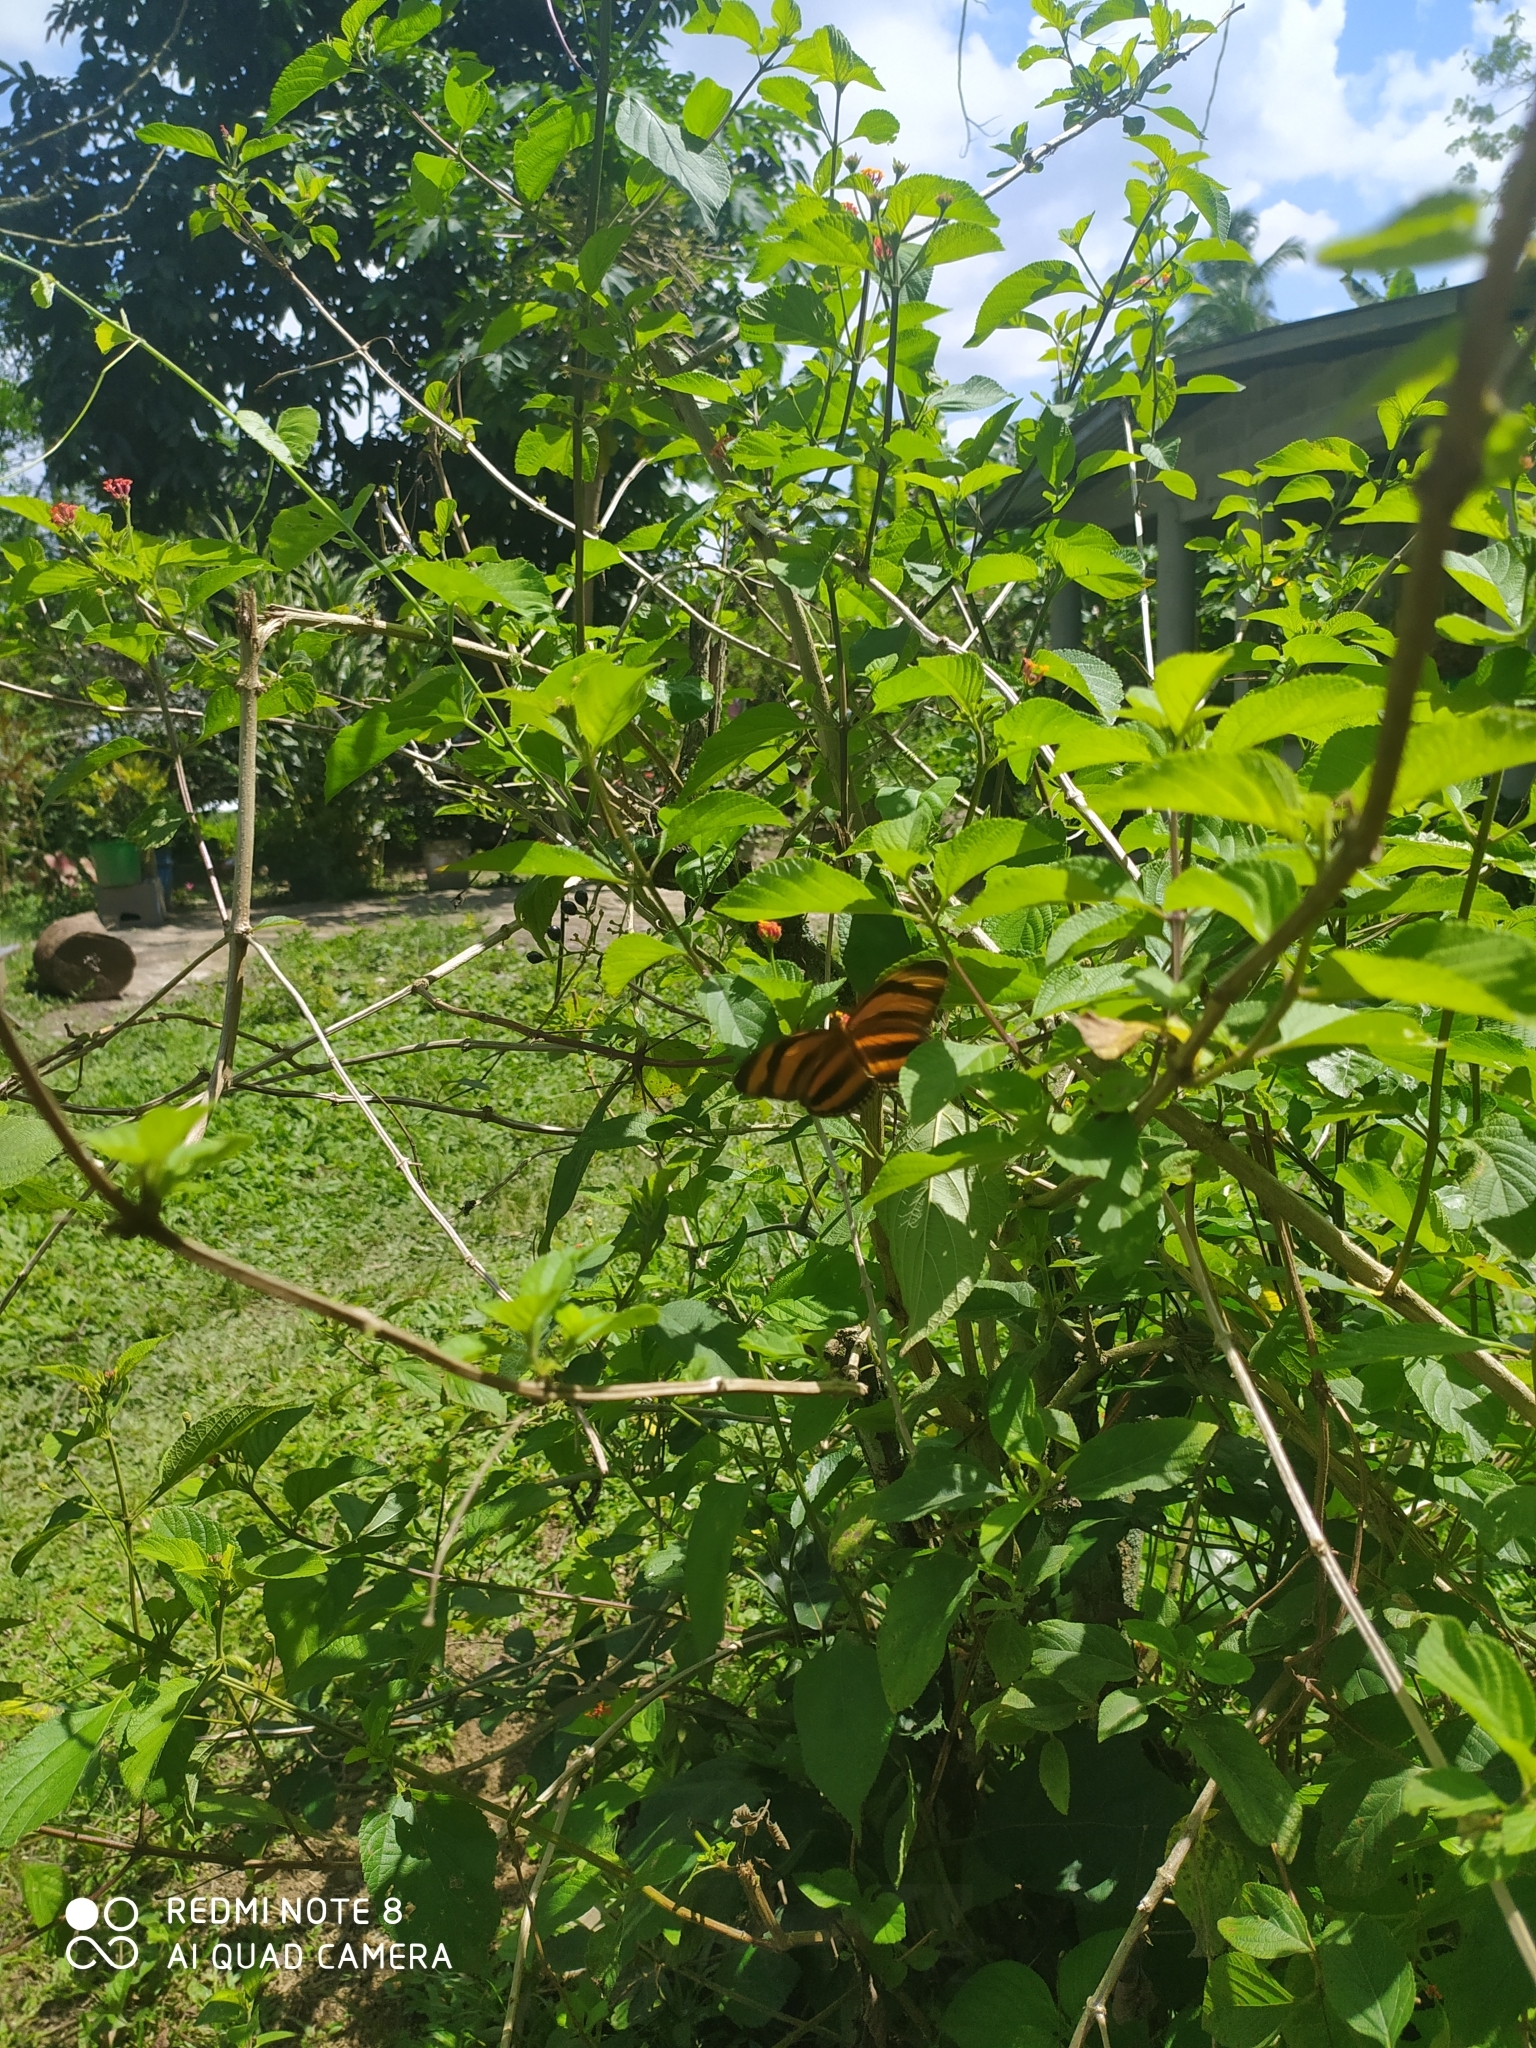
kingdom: Animalia
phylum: Arthropoda
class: Insecta
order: Lepidoptera
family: Nymphalidae
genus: Dryadula
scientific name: Dryadula phaetusa
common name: Banded orange heliconian
